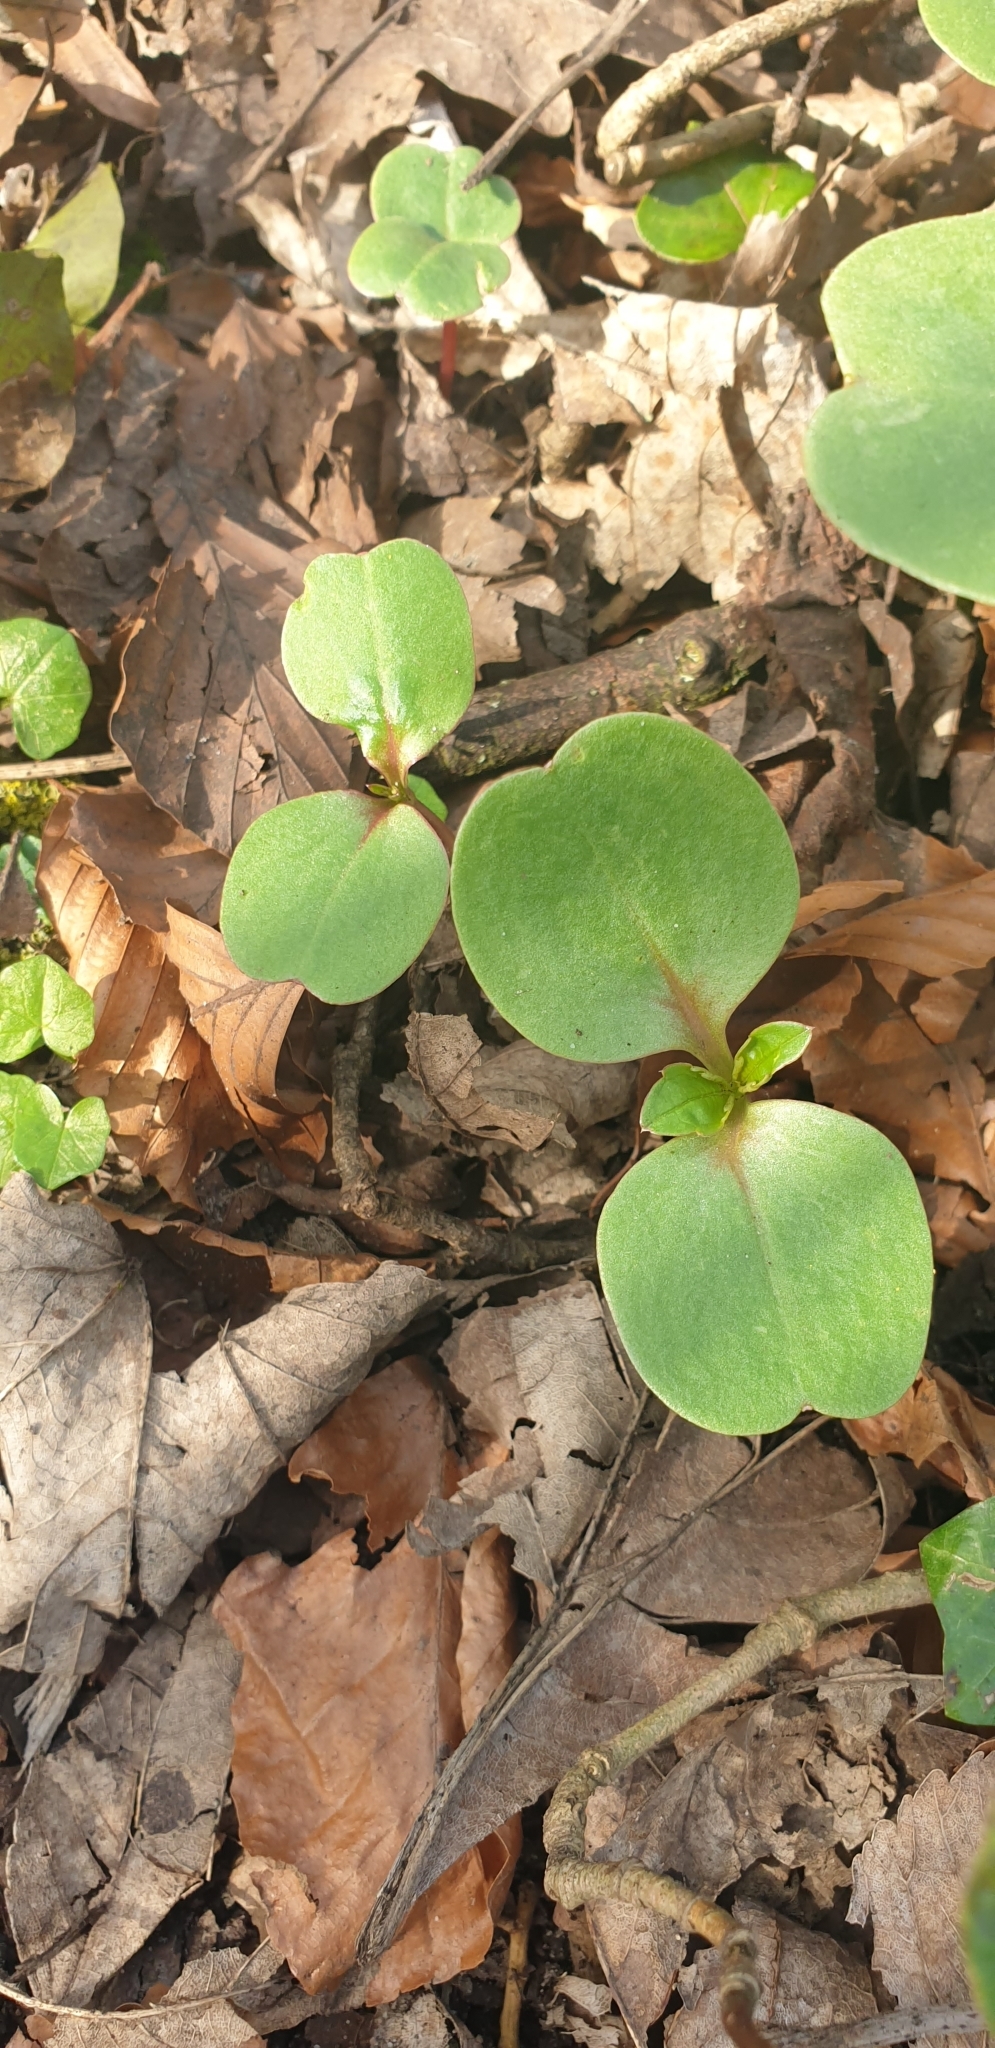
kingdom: Plantae
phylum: Tracheophyta
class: Magnoliopsida
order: Ericales
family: Balsaminaceae
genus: Impatiens
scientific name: Impatiens glandulifera
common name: Himalayan balsam
